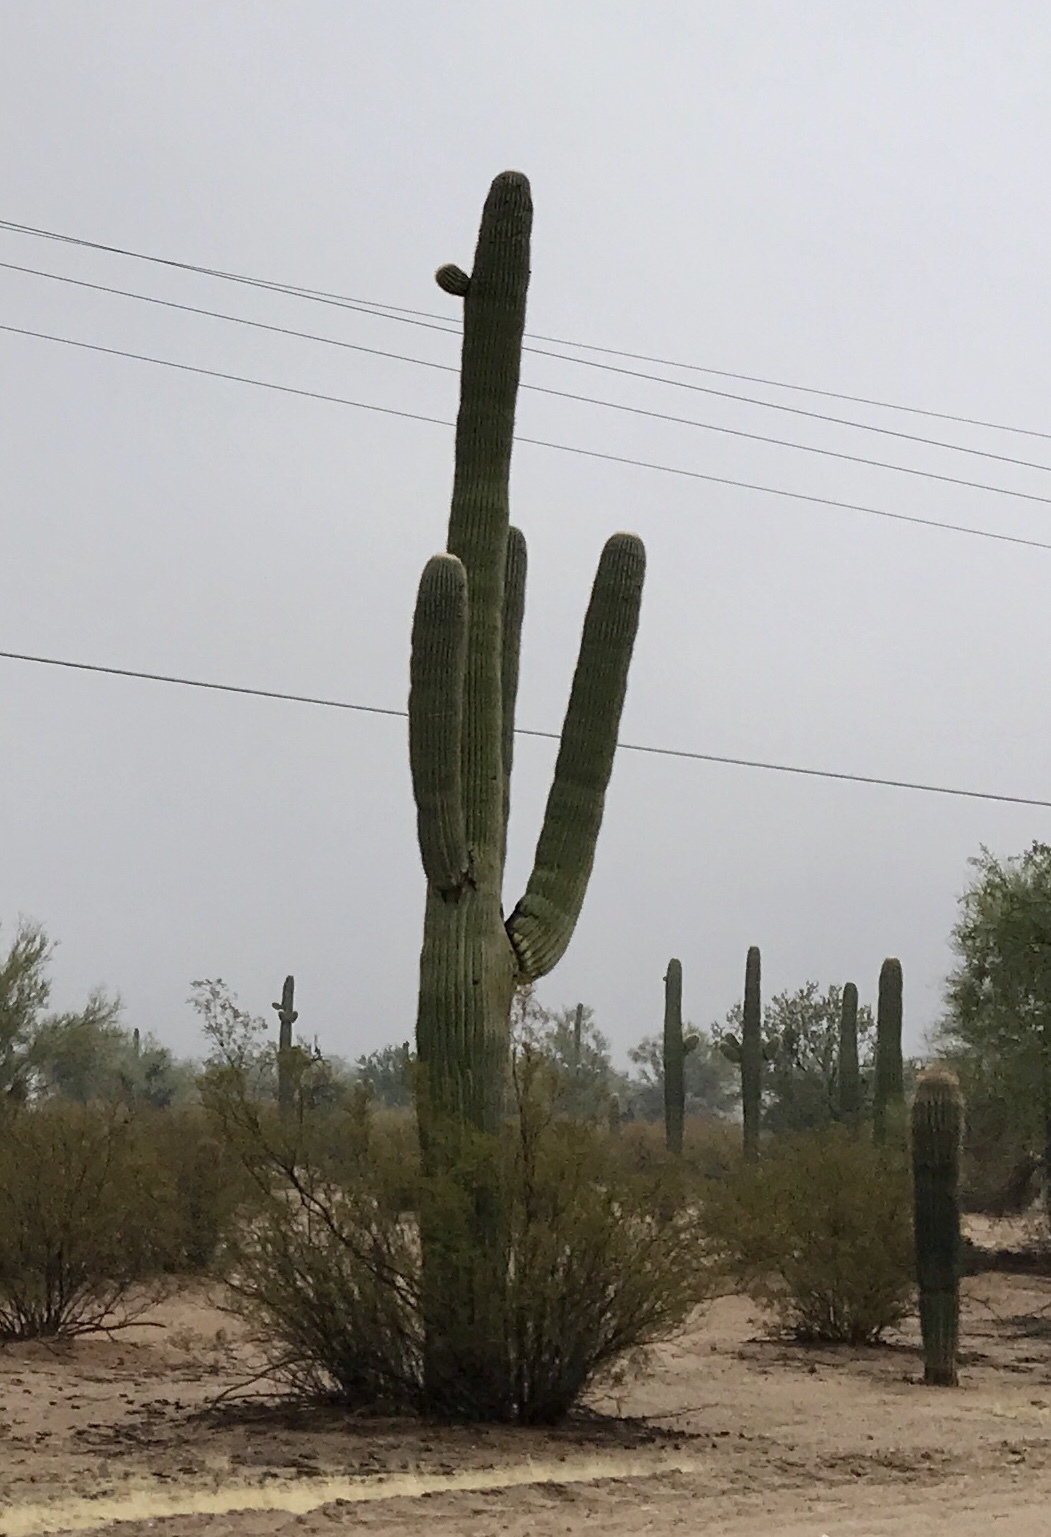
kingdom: Plantae
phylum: Tracheophyta
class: Magnoliopsida
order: Caryophyllales
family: Cactaceae
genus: Carnegiea
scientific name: Carnegiea gigantea
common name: Saguaro
